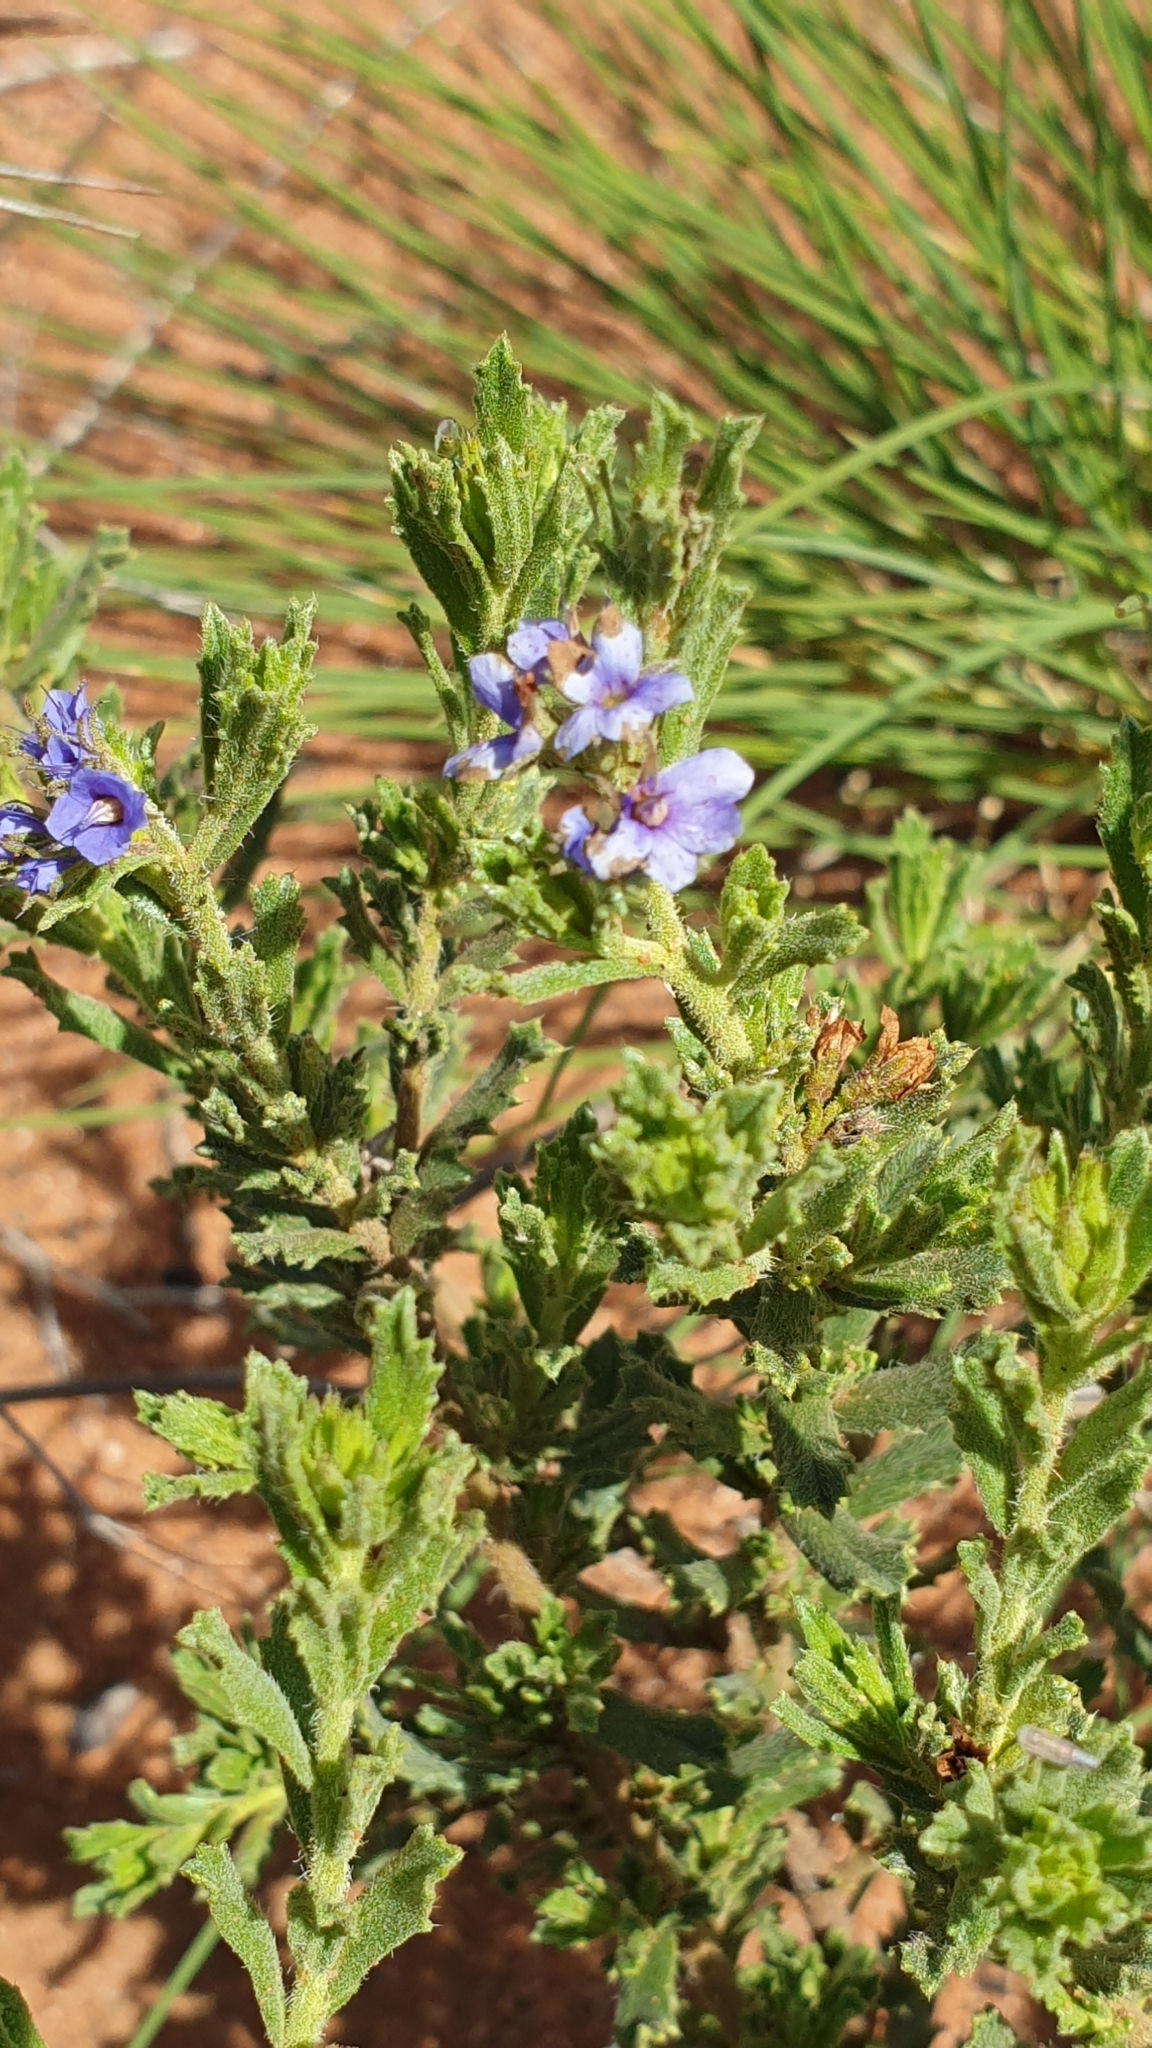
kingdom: Plantae
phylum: Tracheophyta
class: Magnoliopsida
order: Boraginales
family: Ehretiaceae
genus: Halgania
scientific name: Halgania cyanea
